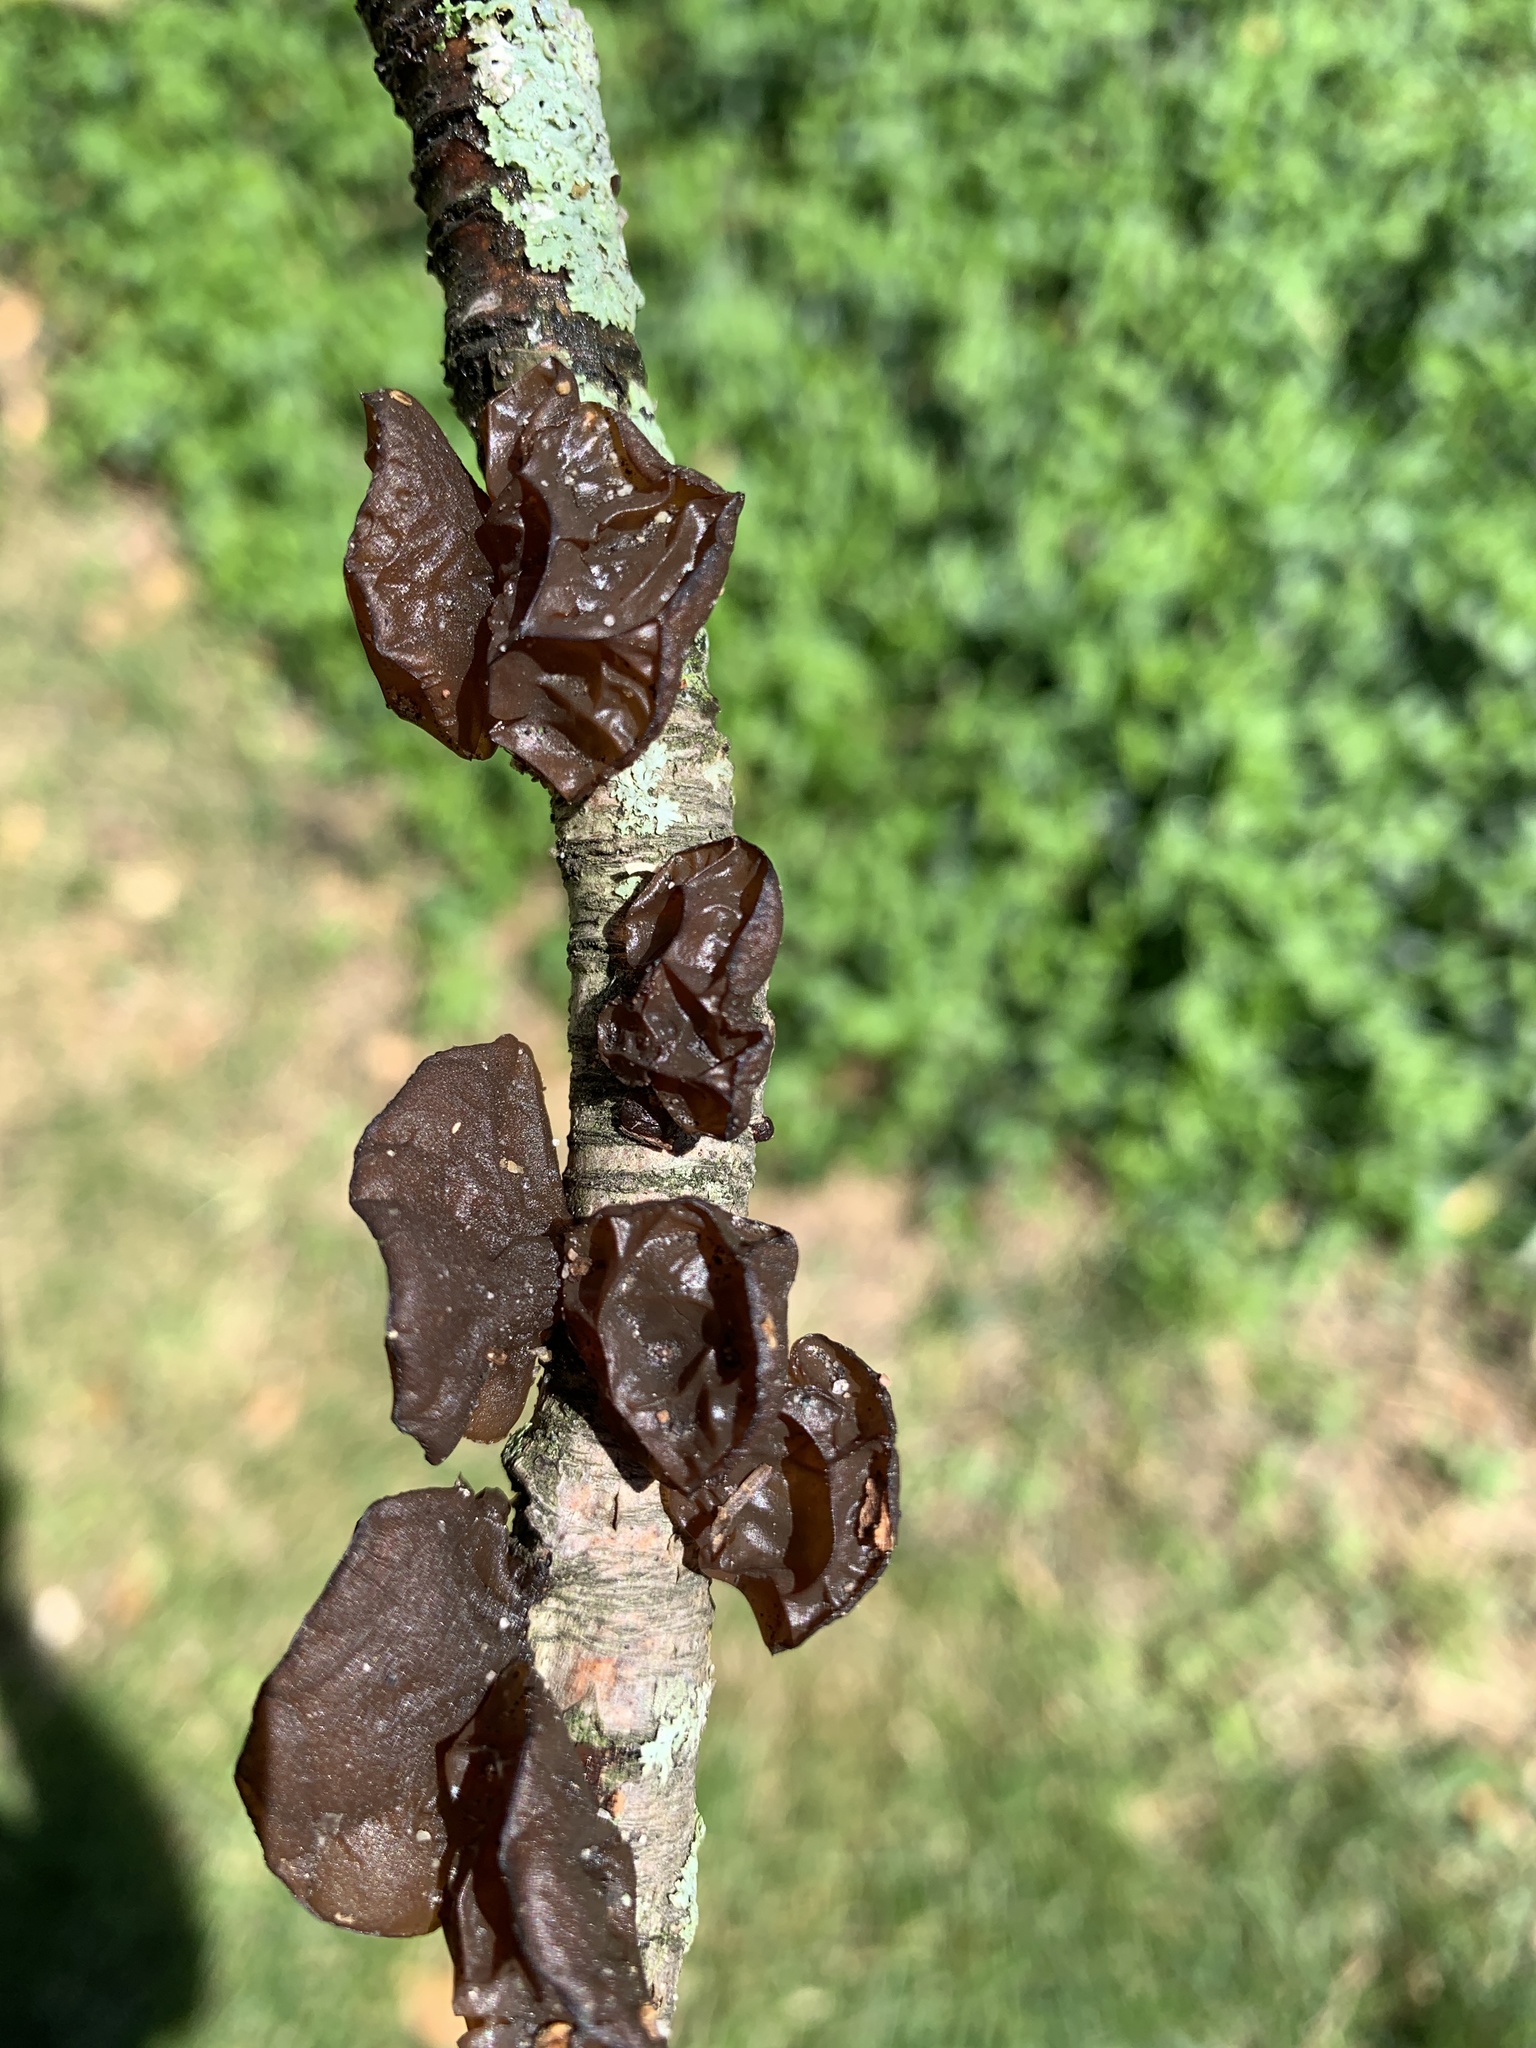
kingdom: Fungi
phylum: Basidiomycota
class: Agaricomycetes
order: Auriculariales
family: Auriculariaceae
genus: Exidia
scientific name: Exidia
